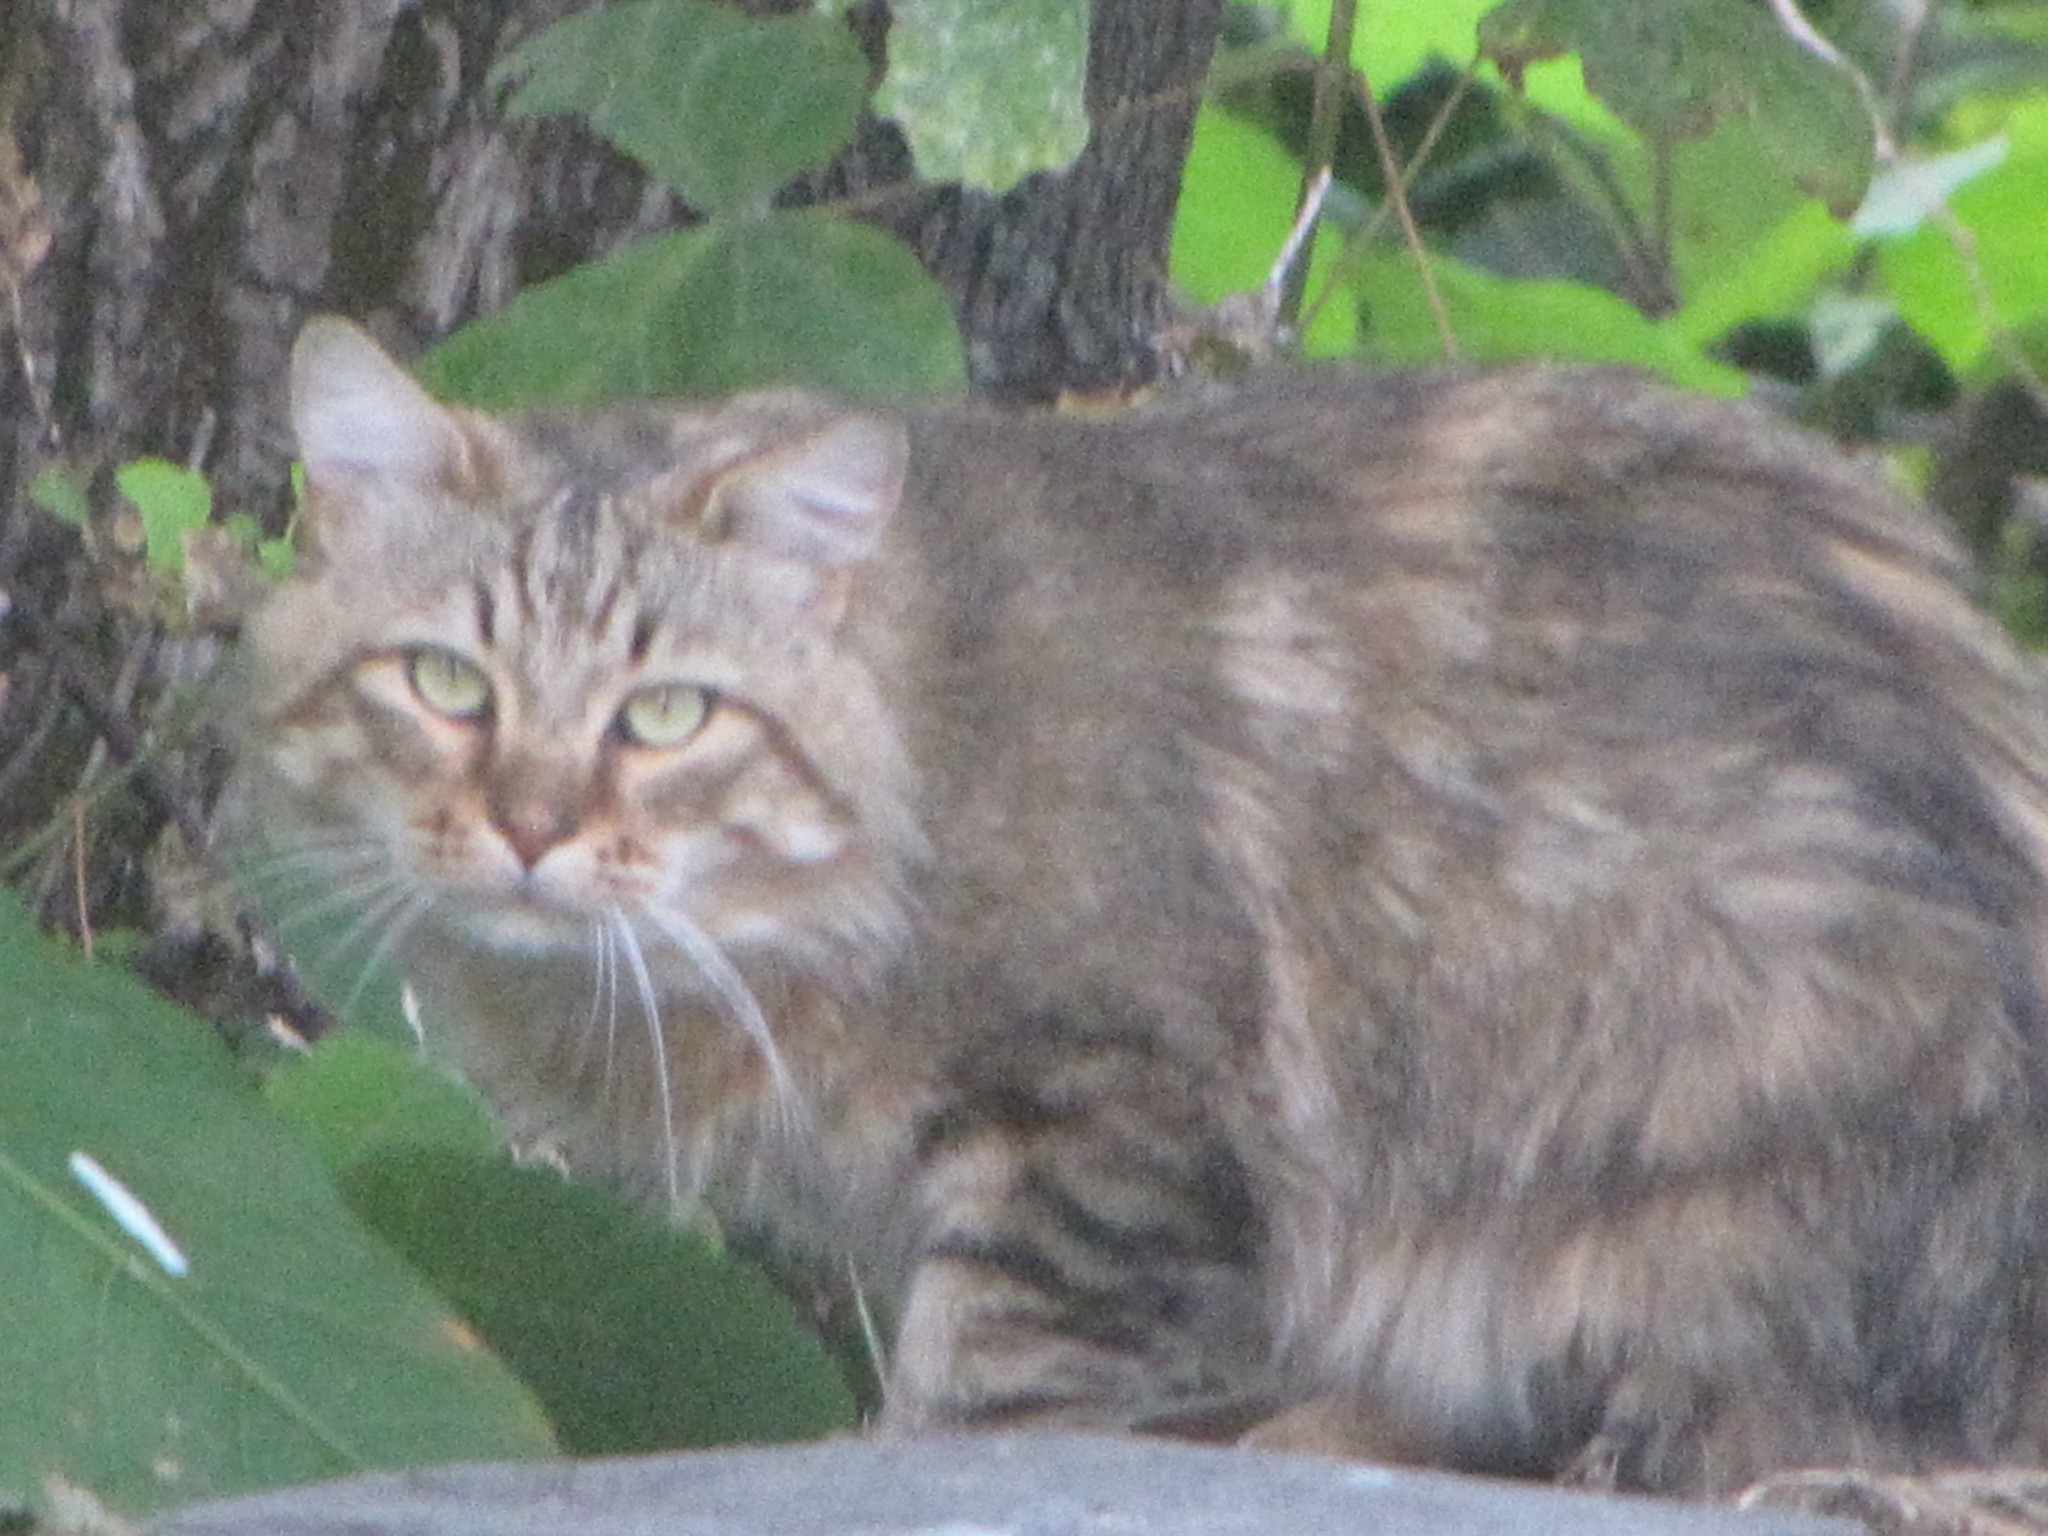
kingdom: Animalia
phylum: Chordata
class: Mammalia
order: Carnivora
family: Felidae
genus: Felis
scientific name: Felis catus
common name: Domestic cat
